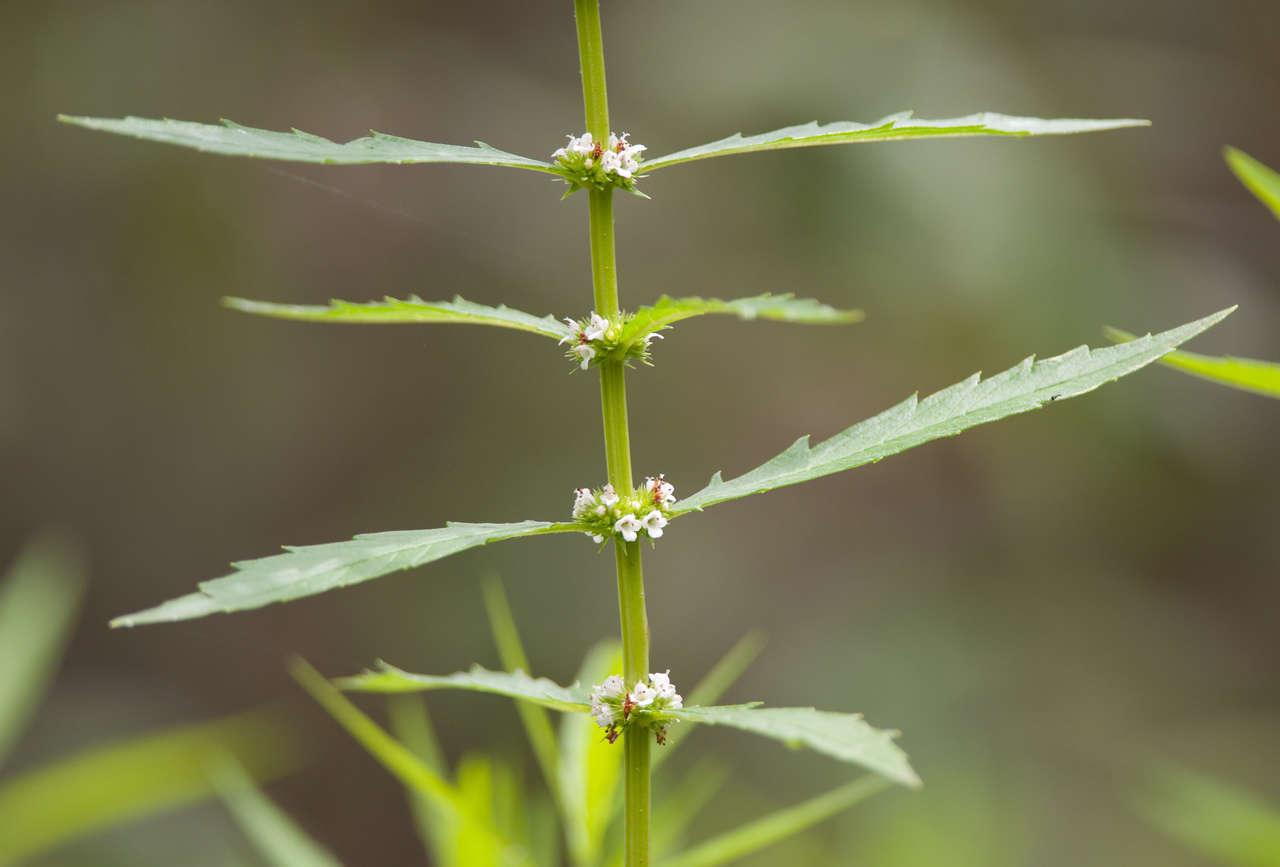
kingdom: Plantae
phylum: Tracheophyta
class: Magnoliopsida
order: Lamiales
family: Lamiaceae
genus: Lycopus
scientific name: Lycopus australis
